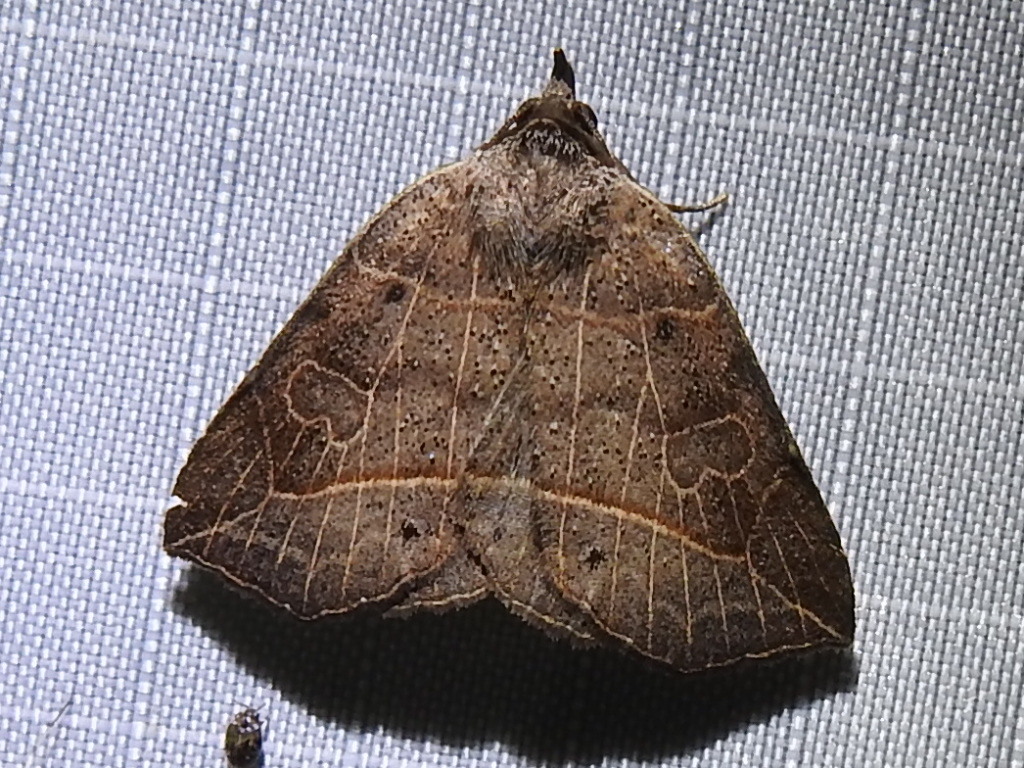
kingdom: Animalia
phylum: Arthropoda
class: Insecta
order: Lepidoptera
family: Erebidae
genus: Isogona
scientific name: Isogona tenuis
